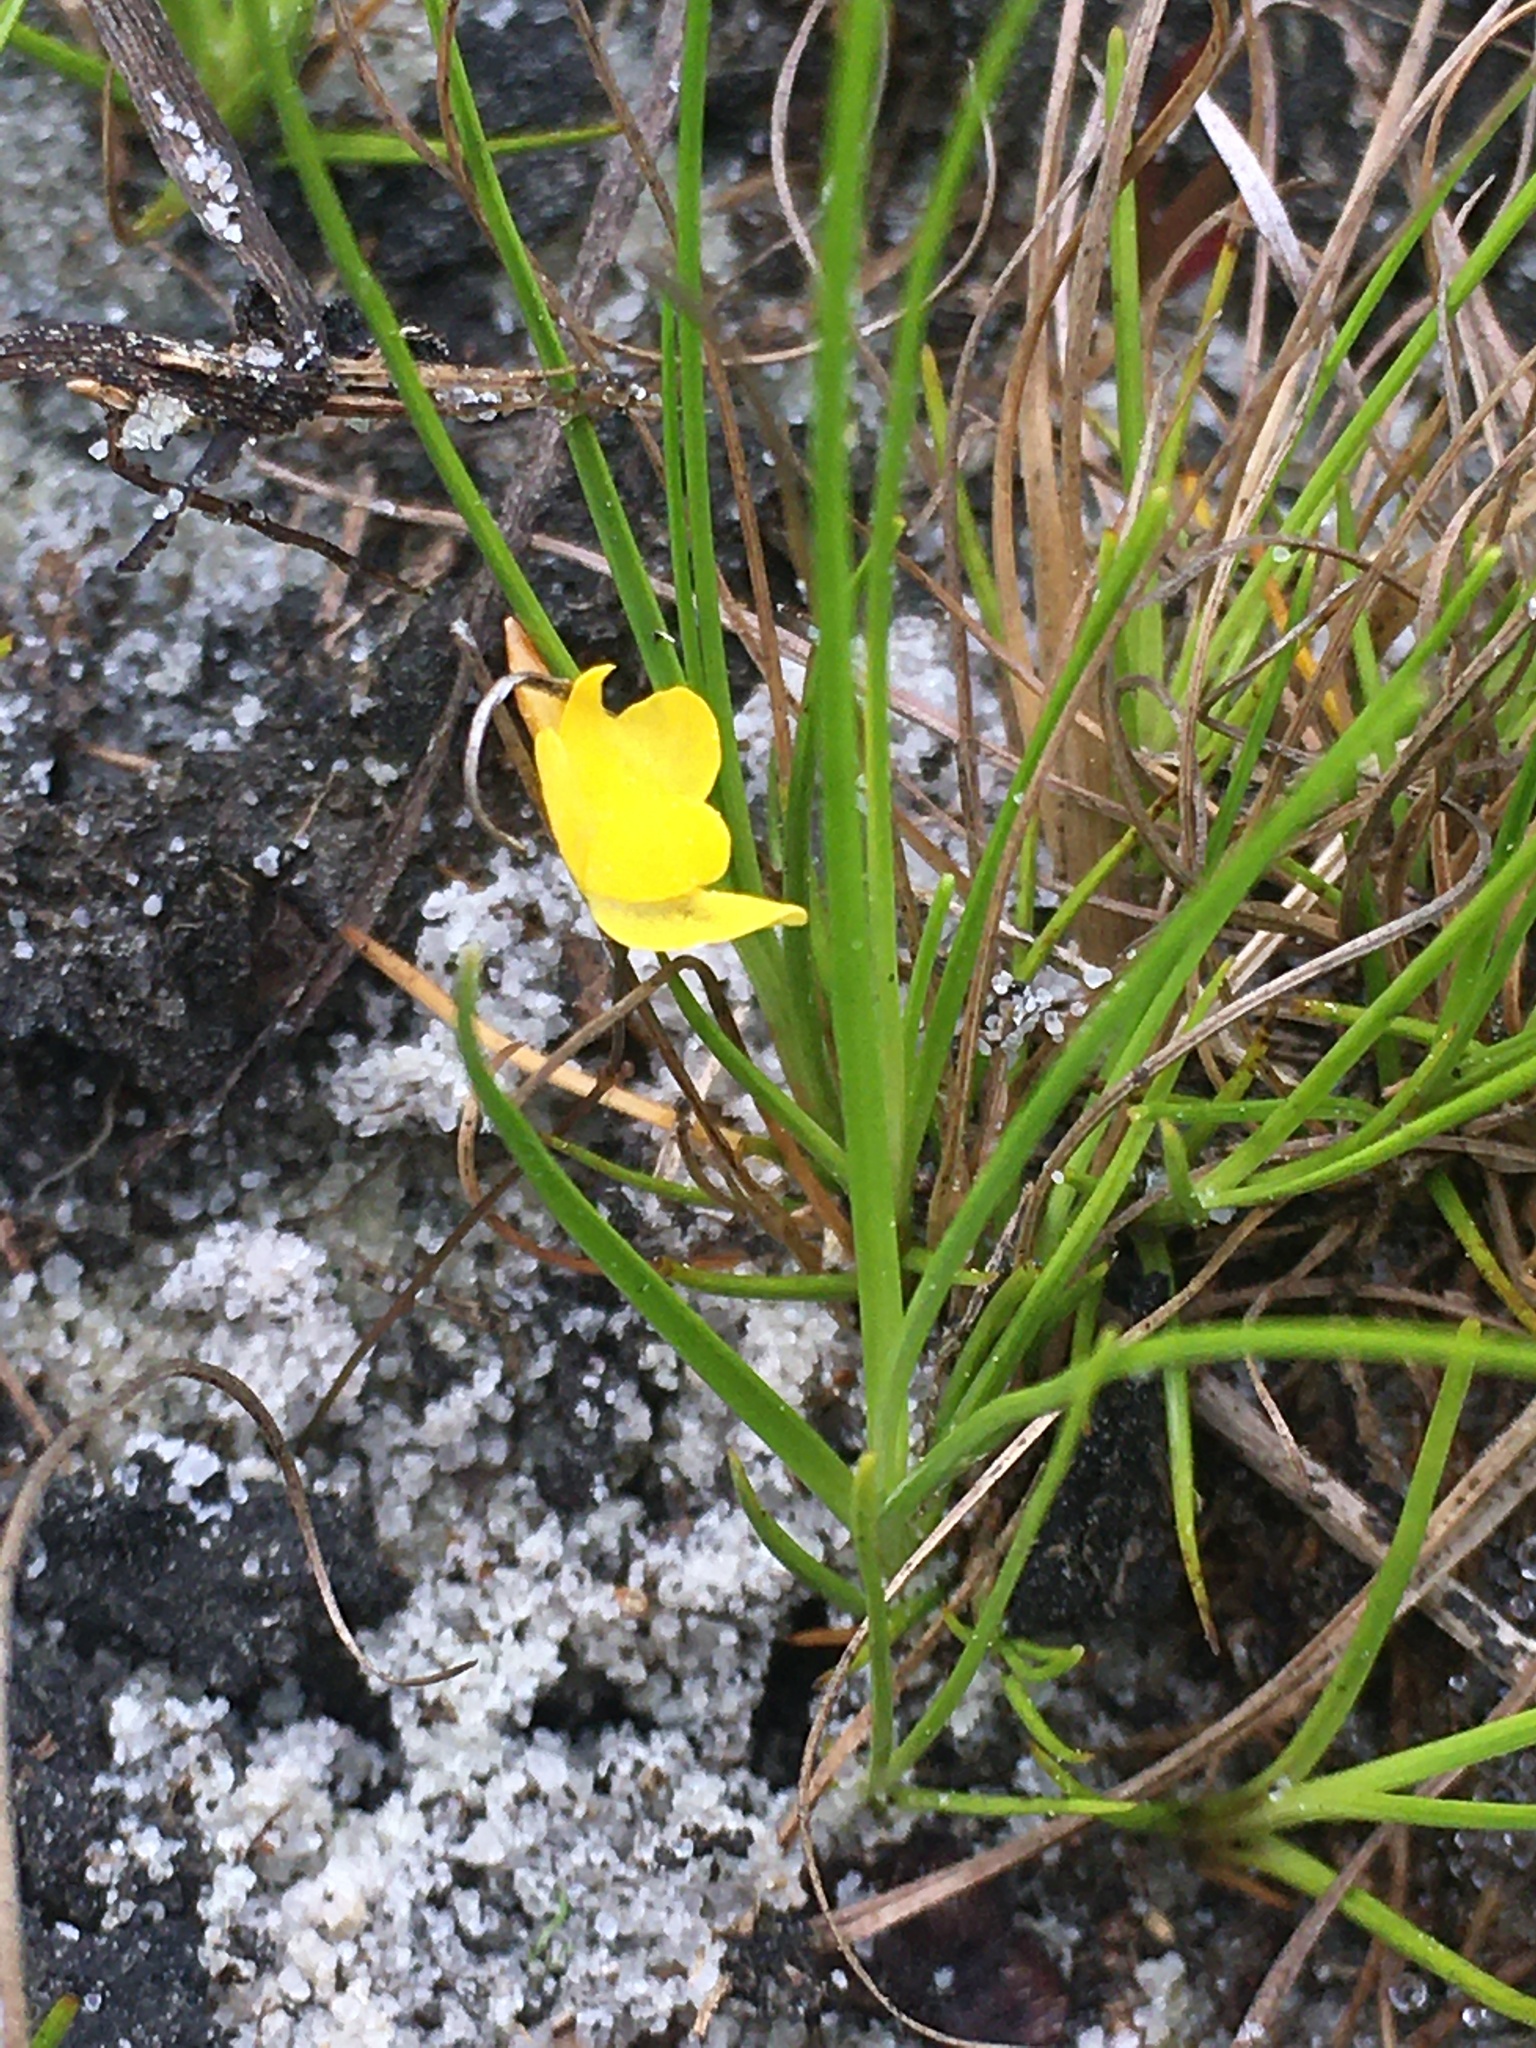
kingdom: Plantae
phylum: Tracheophyta
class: Magnoliopsida
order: Lamiales
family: Lentibulariaceae
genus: Utricularia
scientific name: Utricularia subulata
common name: Tiny bladderwort
